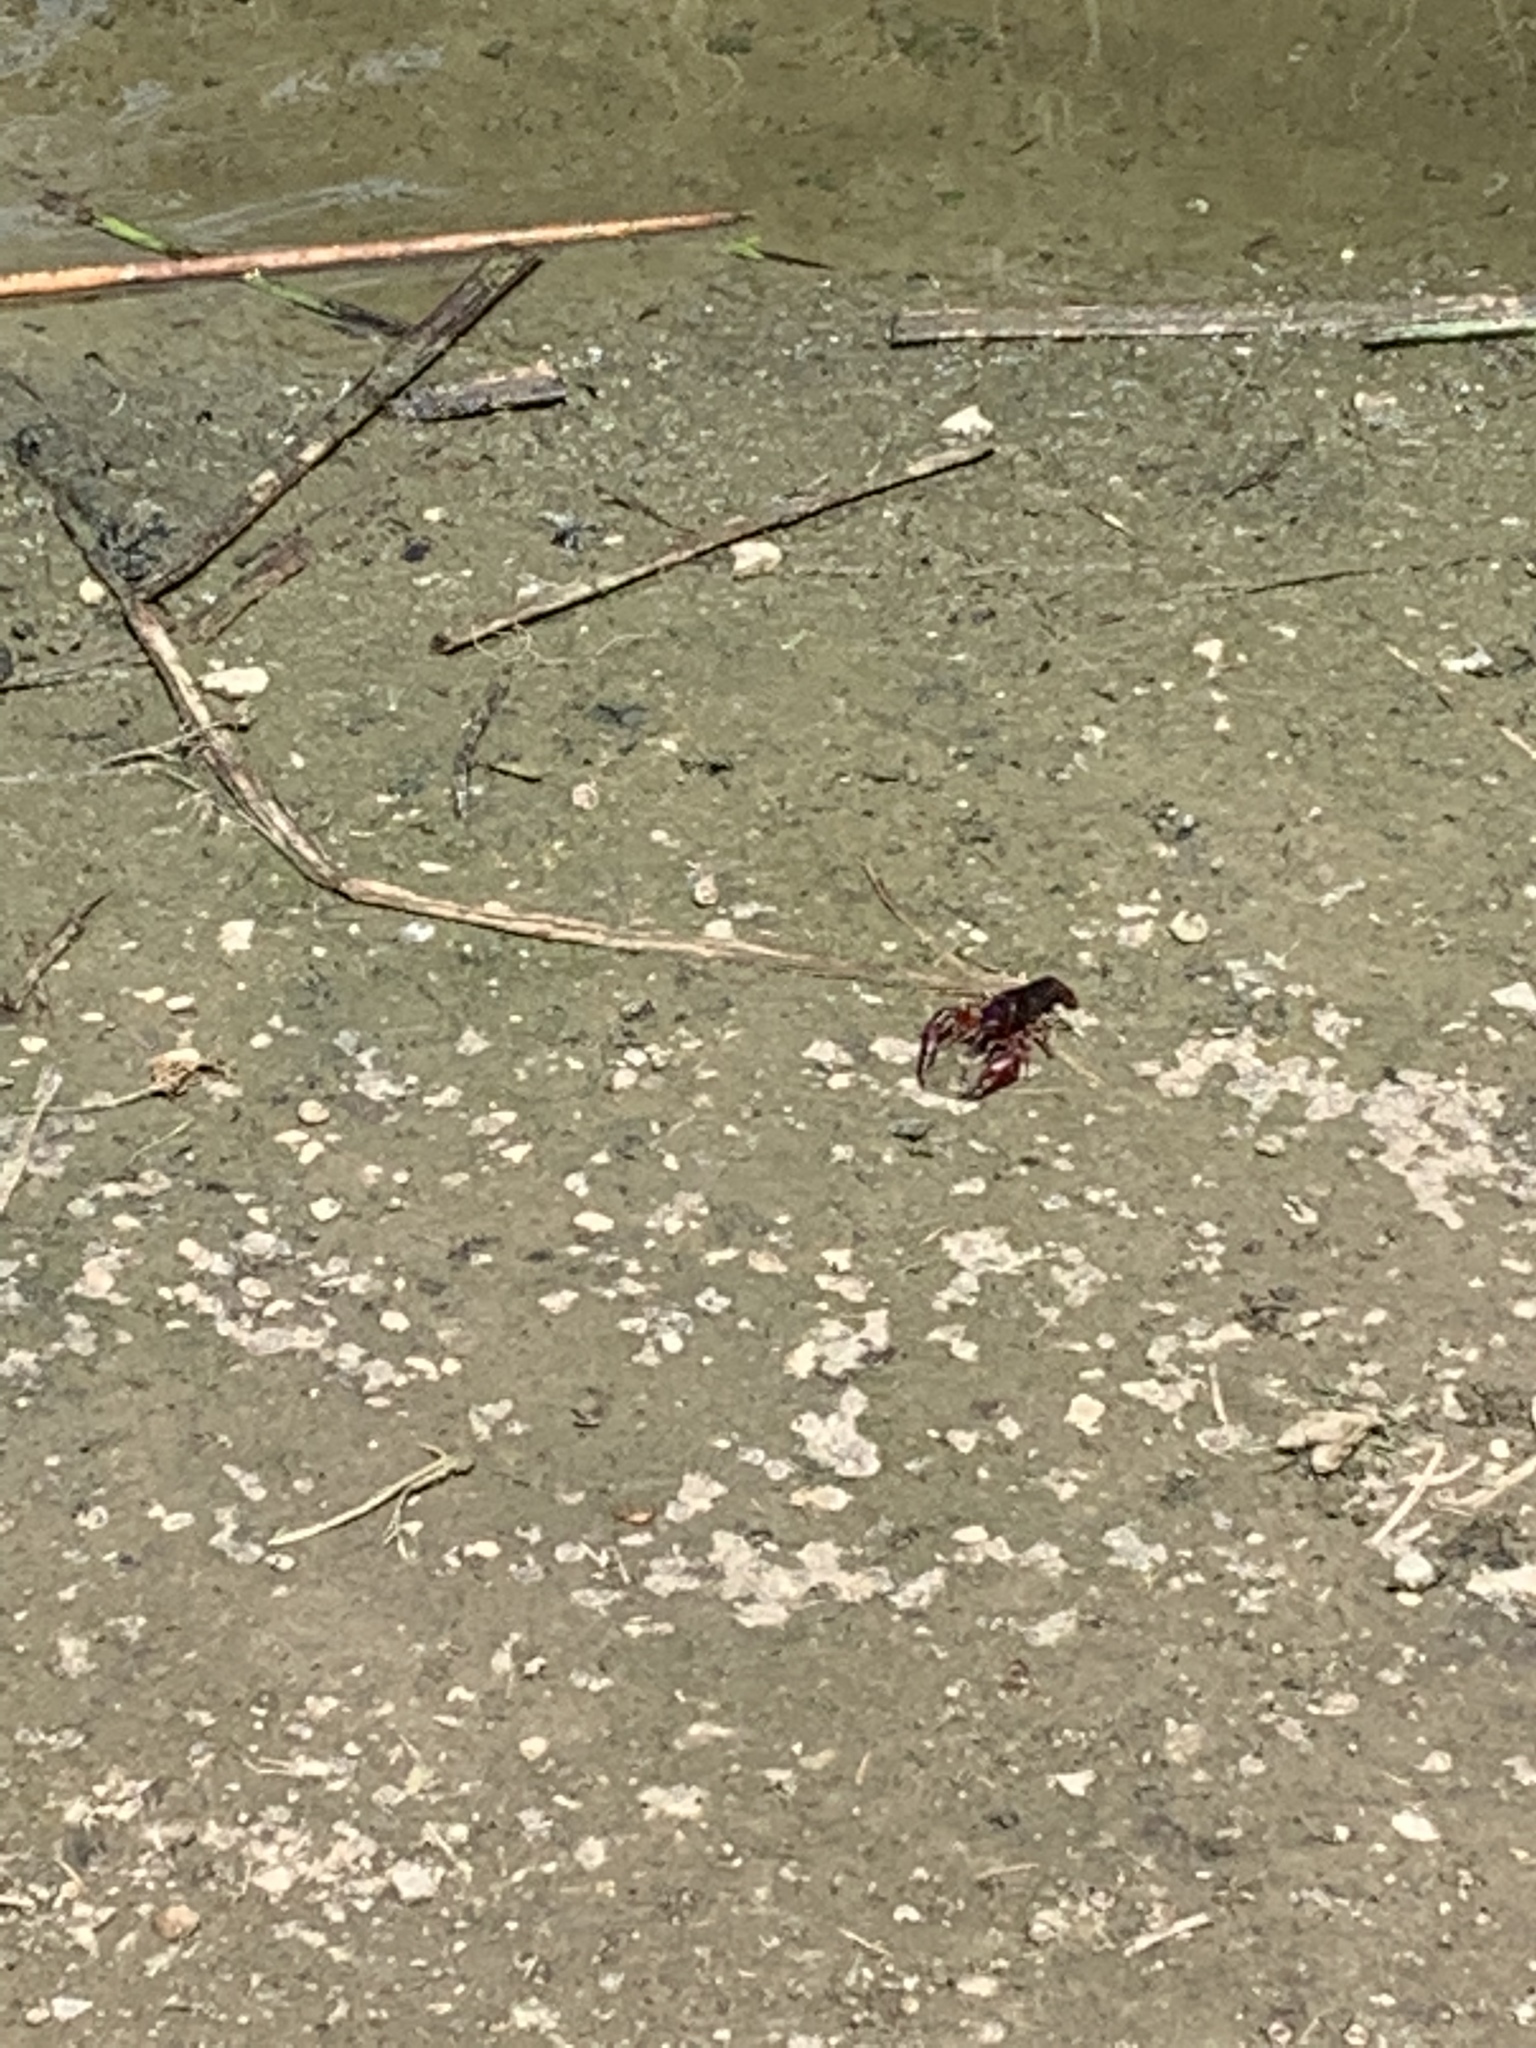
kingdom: Animalia
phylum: Arthropoda
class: Malacostraca
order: Decapoda
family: Cambaridae
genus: Procambarus
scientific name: Procambarus clarkii
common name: Red swamp crayfish
